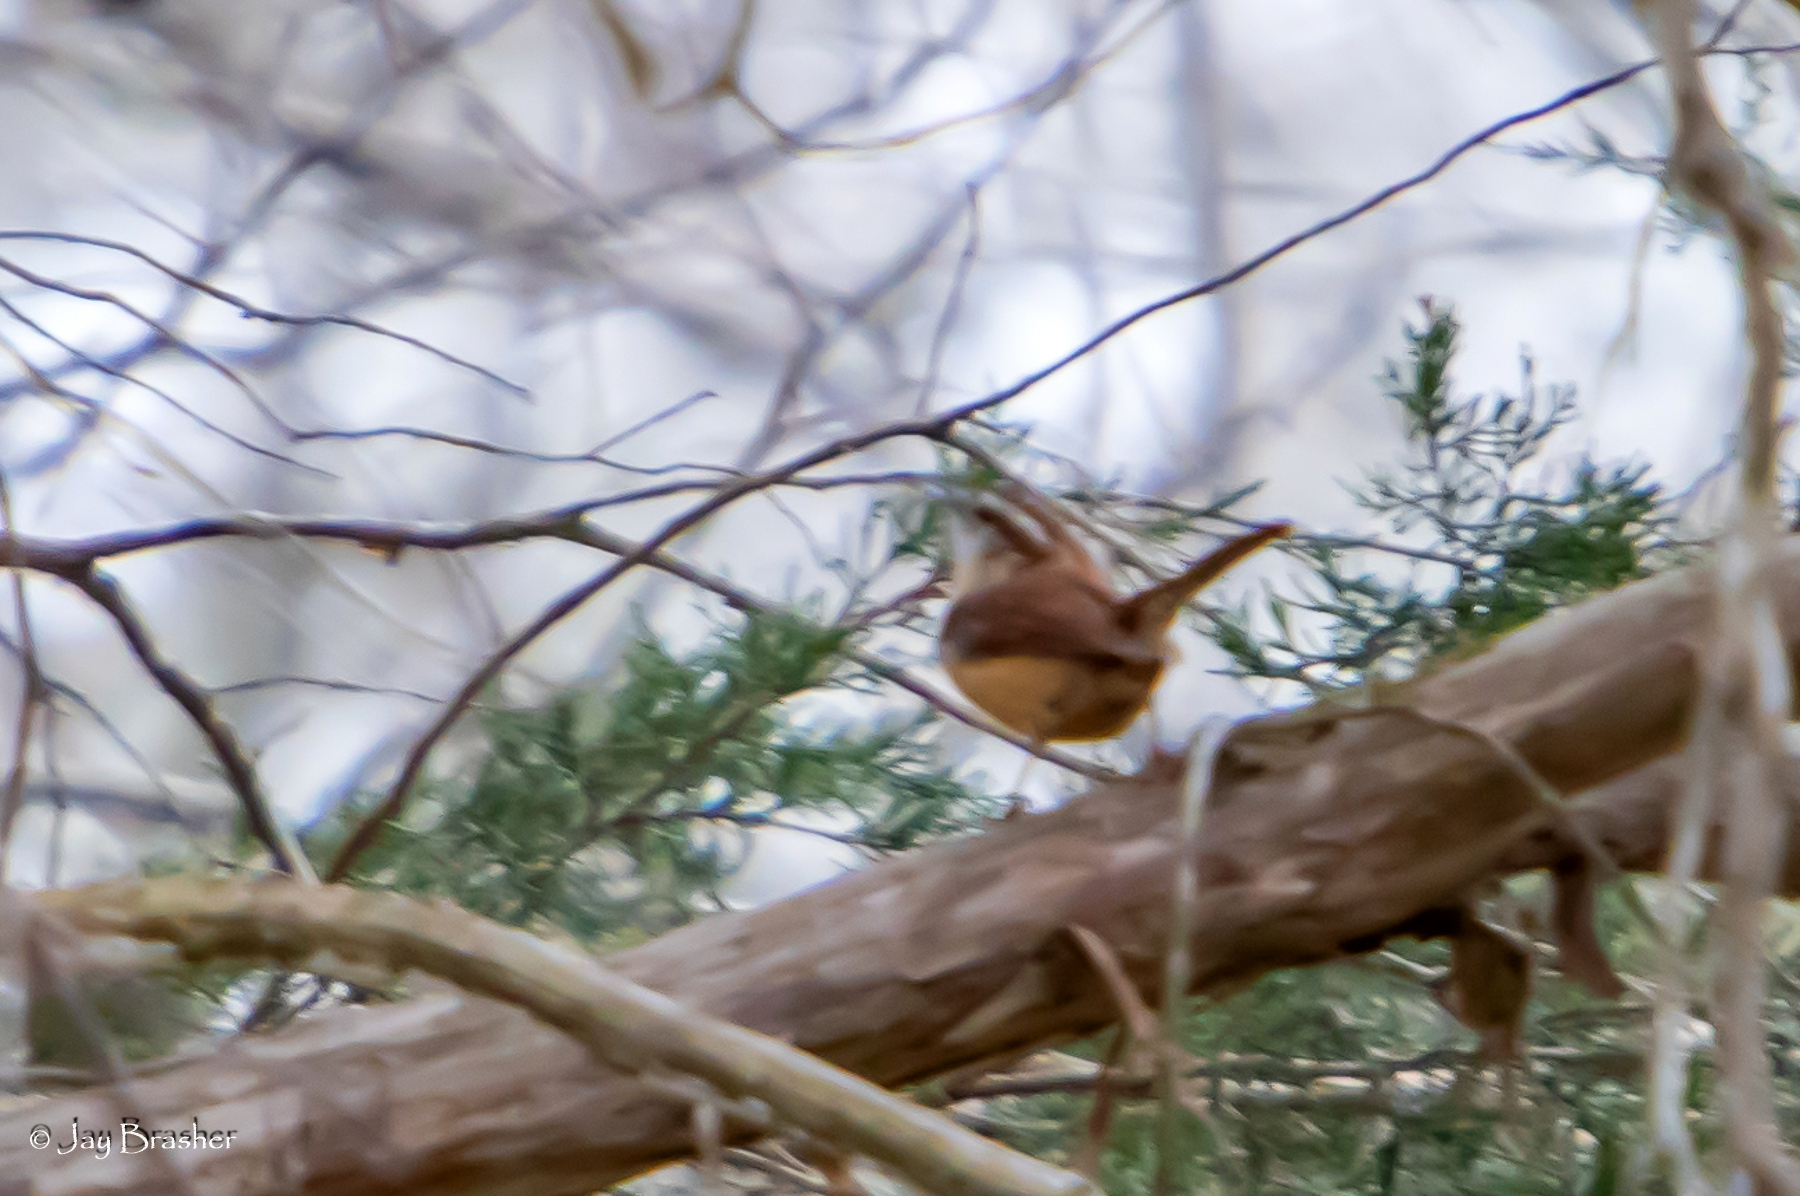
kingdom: Animalia
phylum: Chordata
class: Aves
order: Passeriformes
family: Troglodytidae
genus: Thryothorus
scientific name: Thryothorus ludovicianus
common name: Carolina wren
